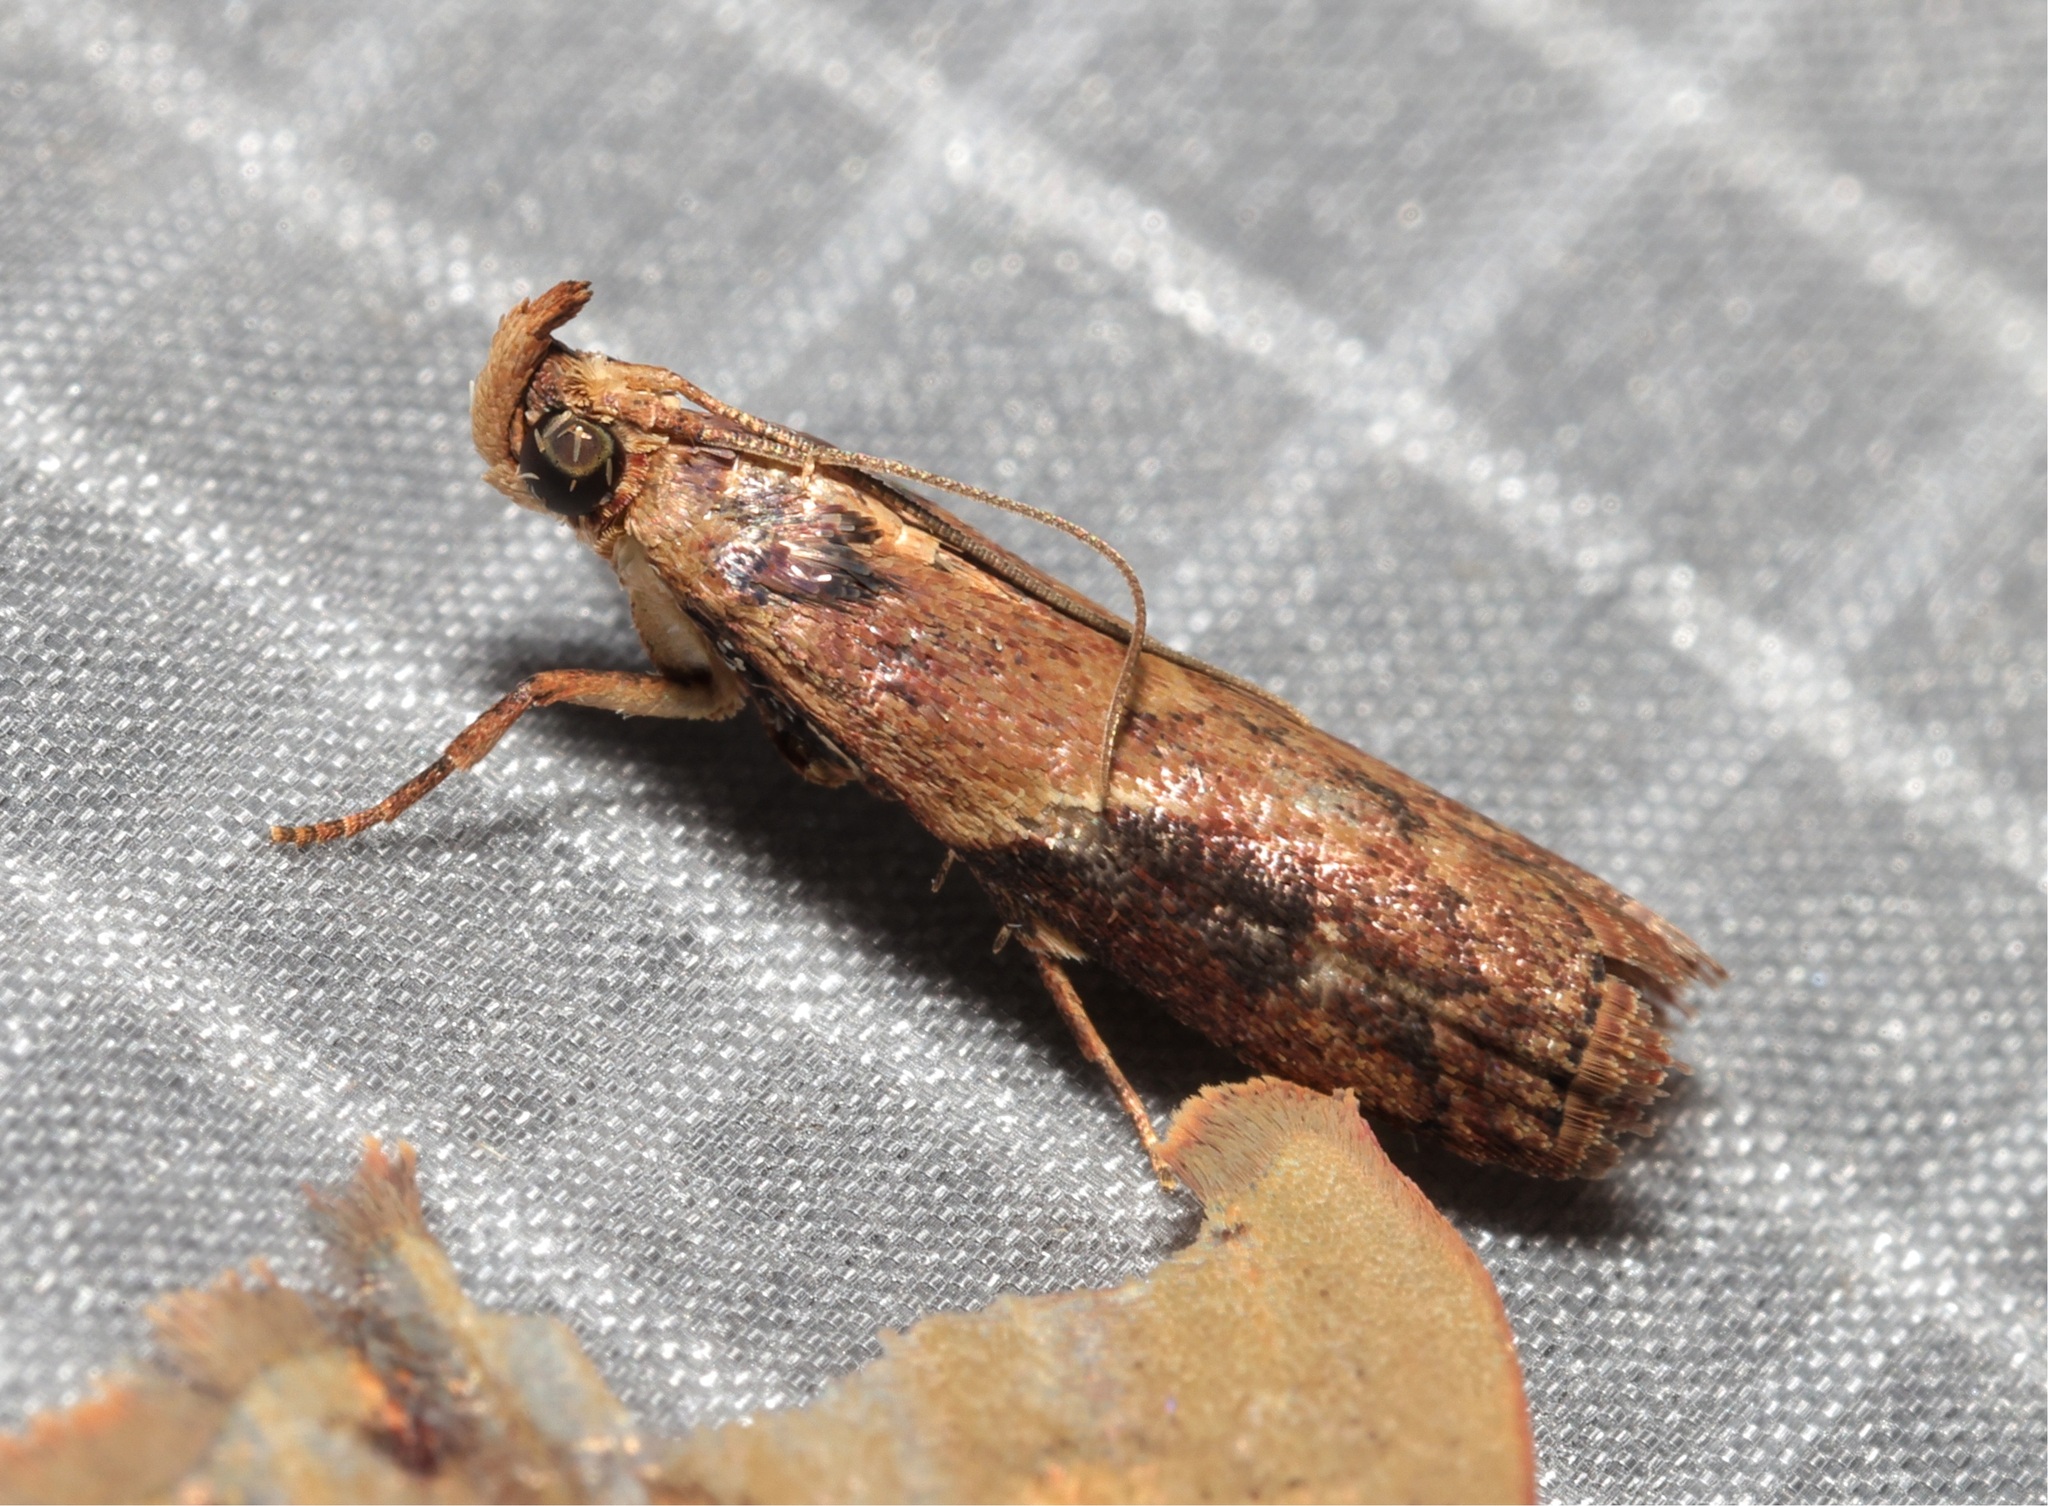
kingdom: Animalia
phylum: Arthropoda
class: Insecta
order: Lepidoptera
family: Pyralidae
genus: Volobilis
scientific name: Volobilis biplaga
